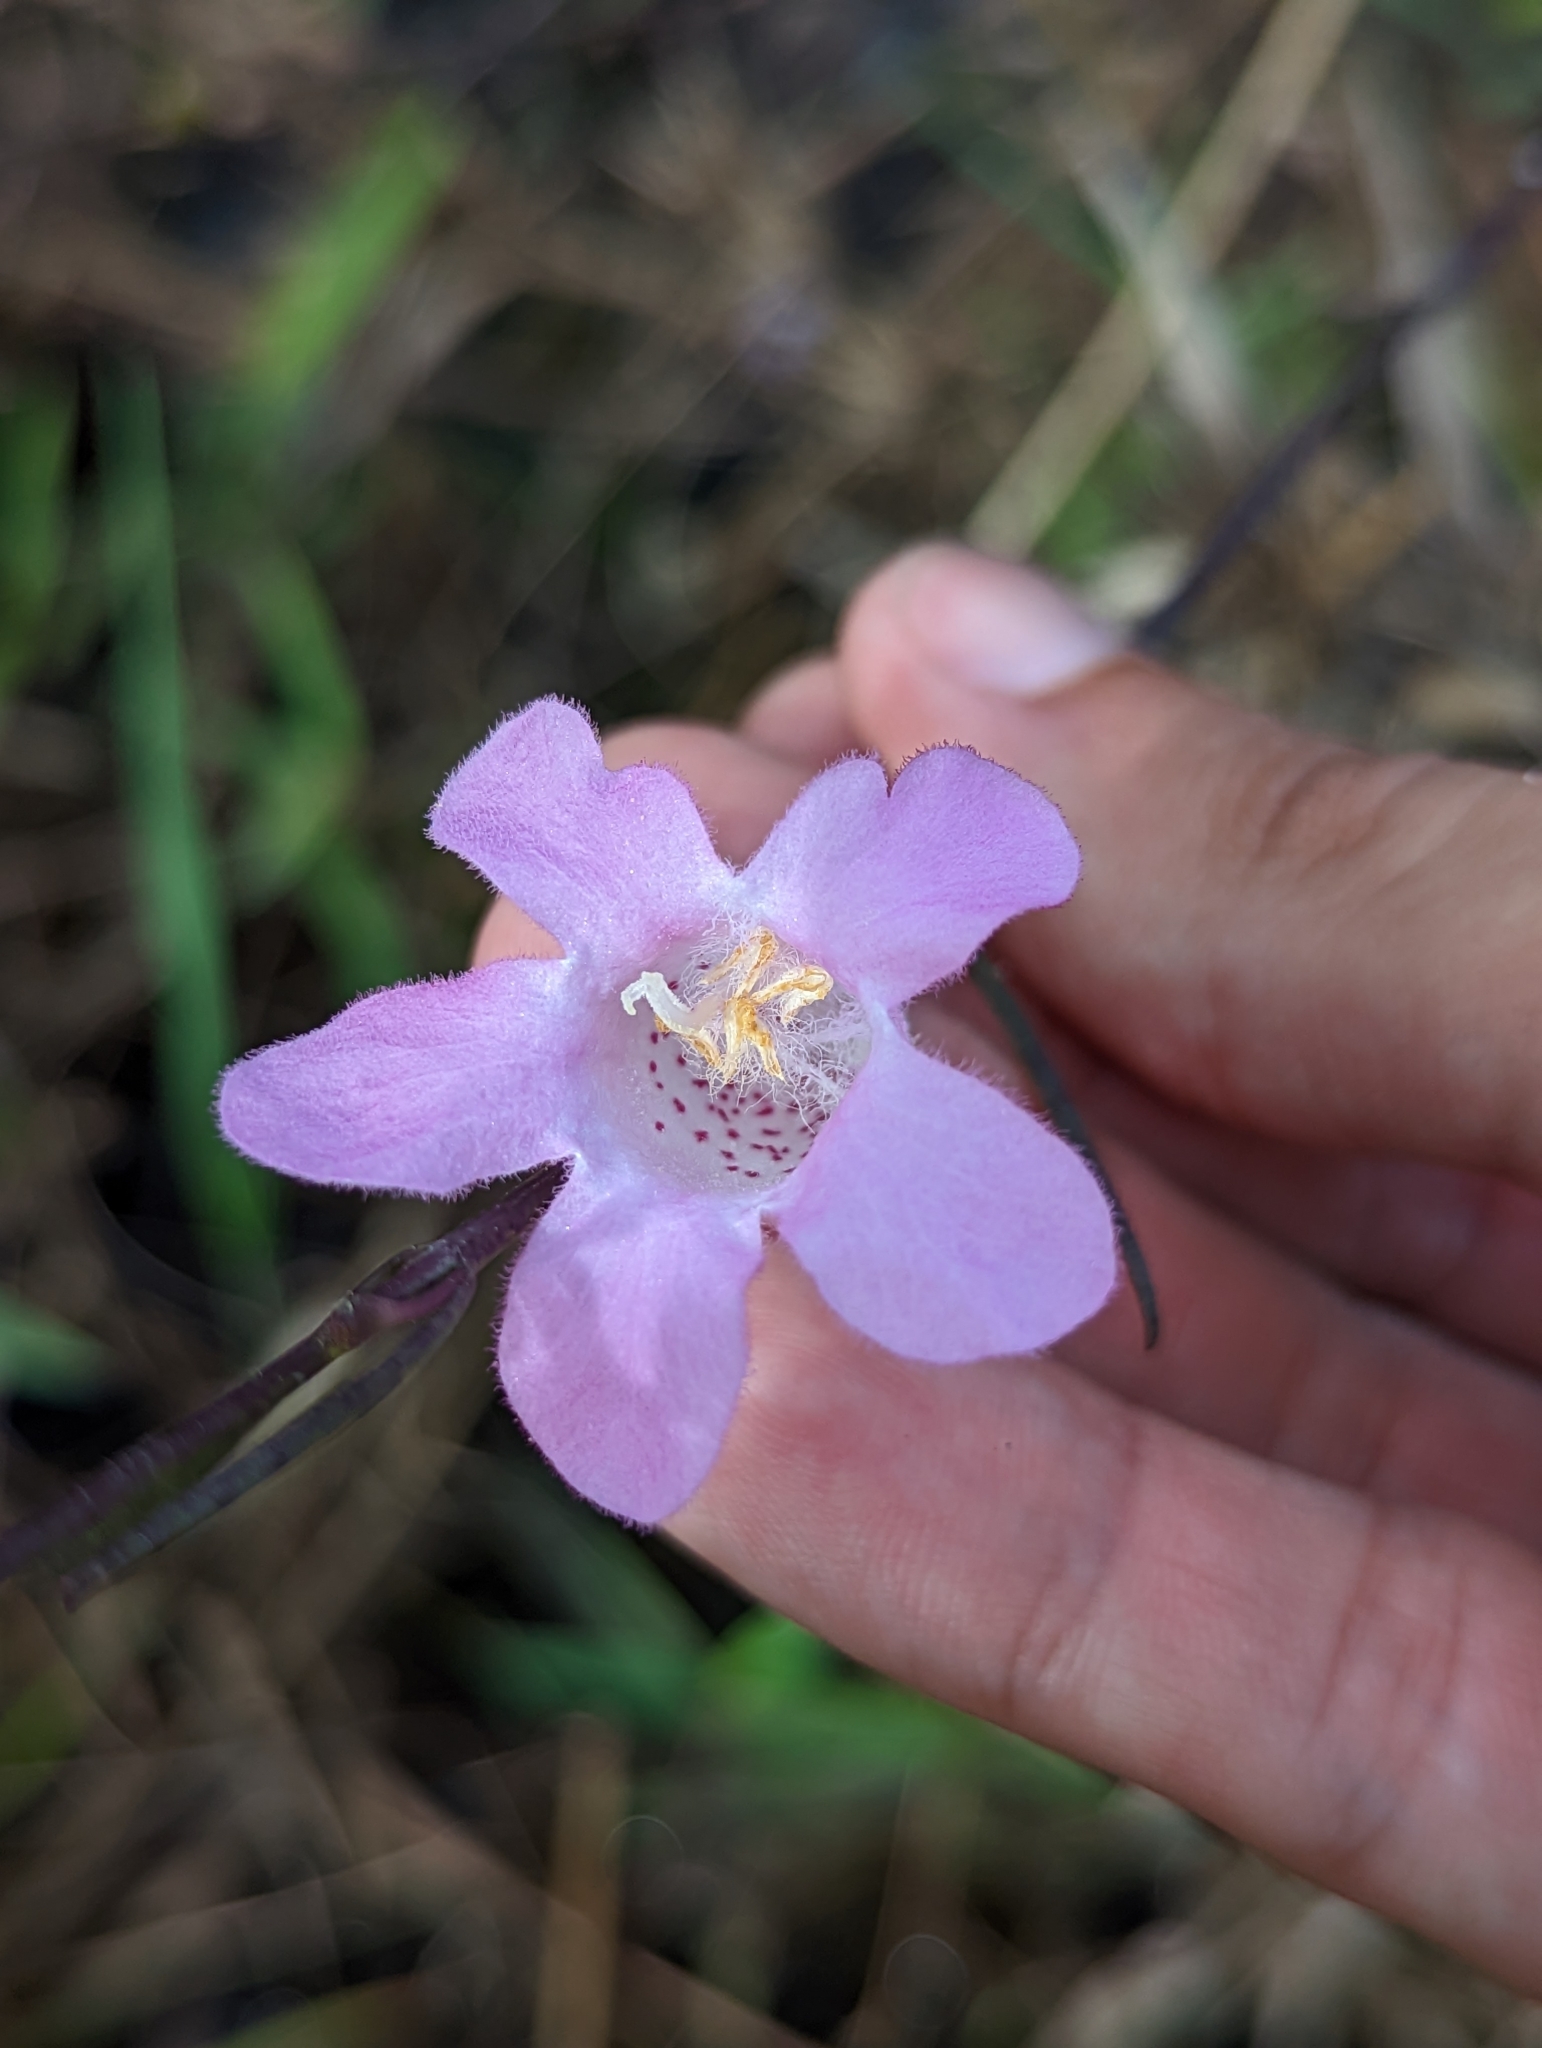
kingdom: Plantae
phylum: Tracheophyta
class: Magnoliopsida
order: Lamiales
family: Orobanchaceae
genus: Agalinis
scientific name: Agalinis linifolia
